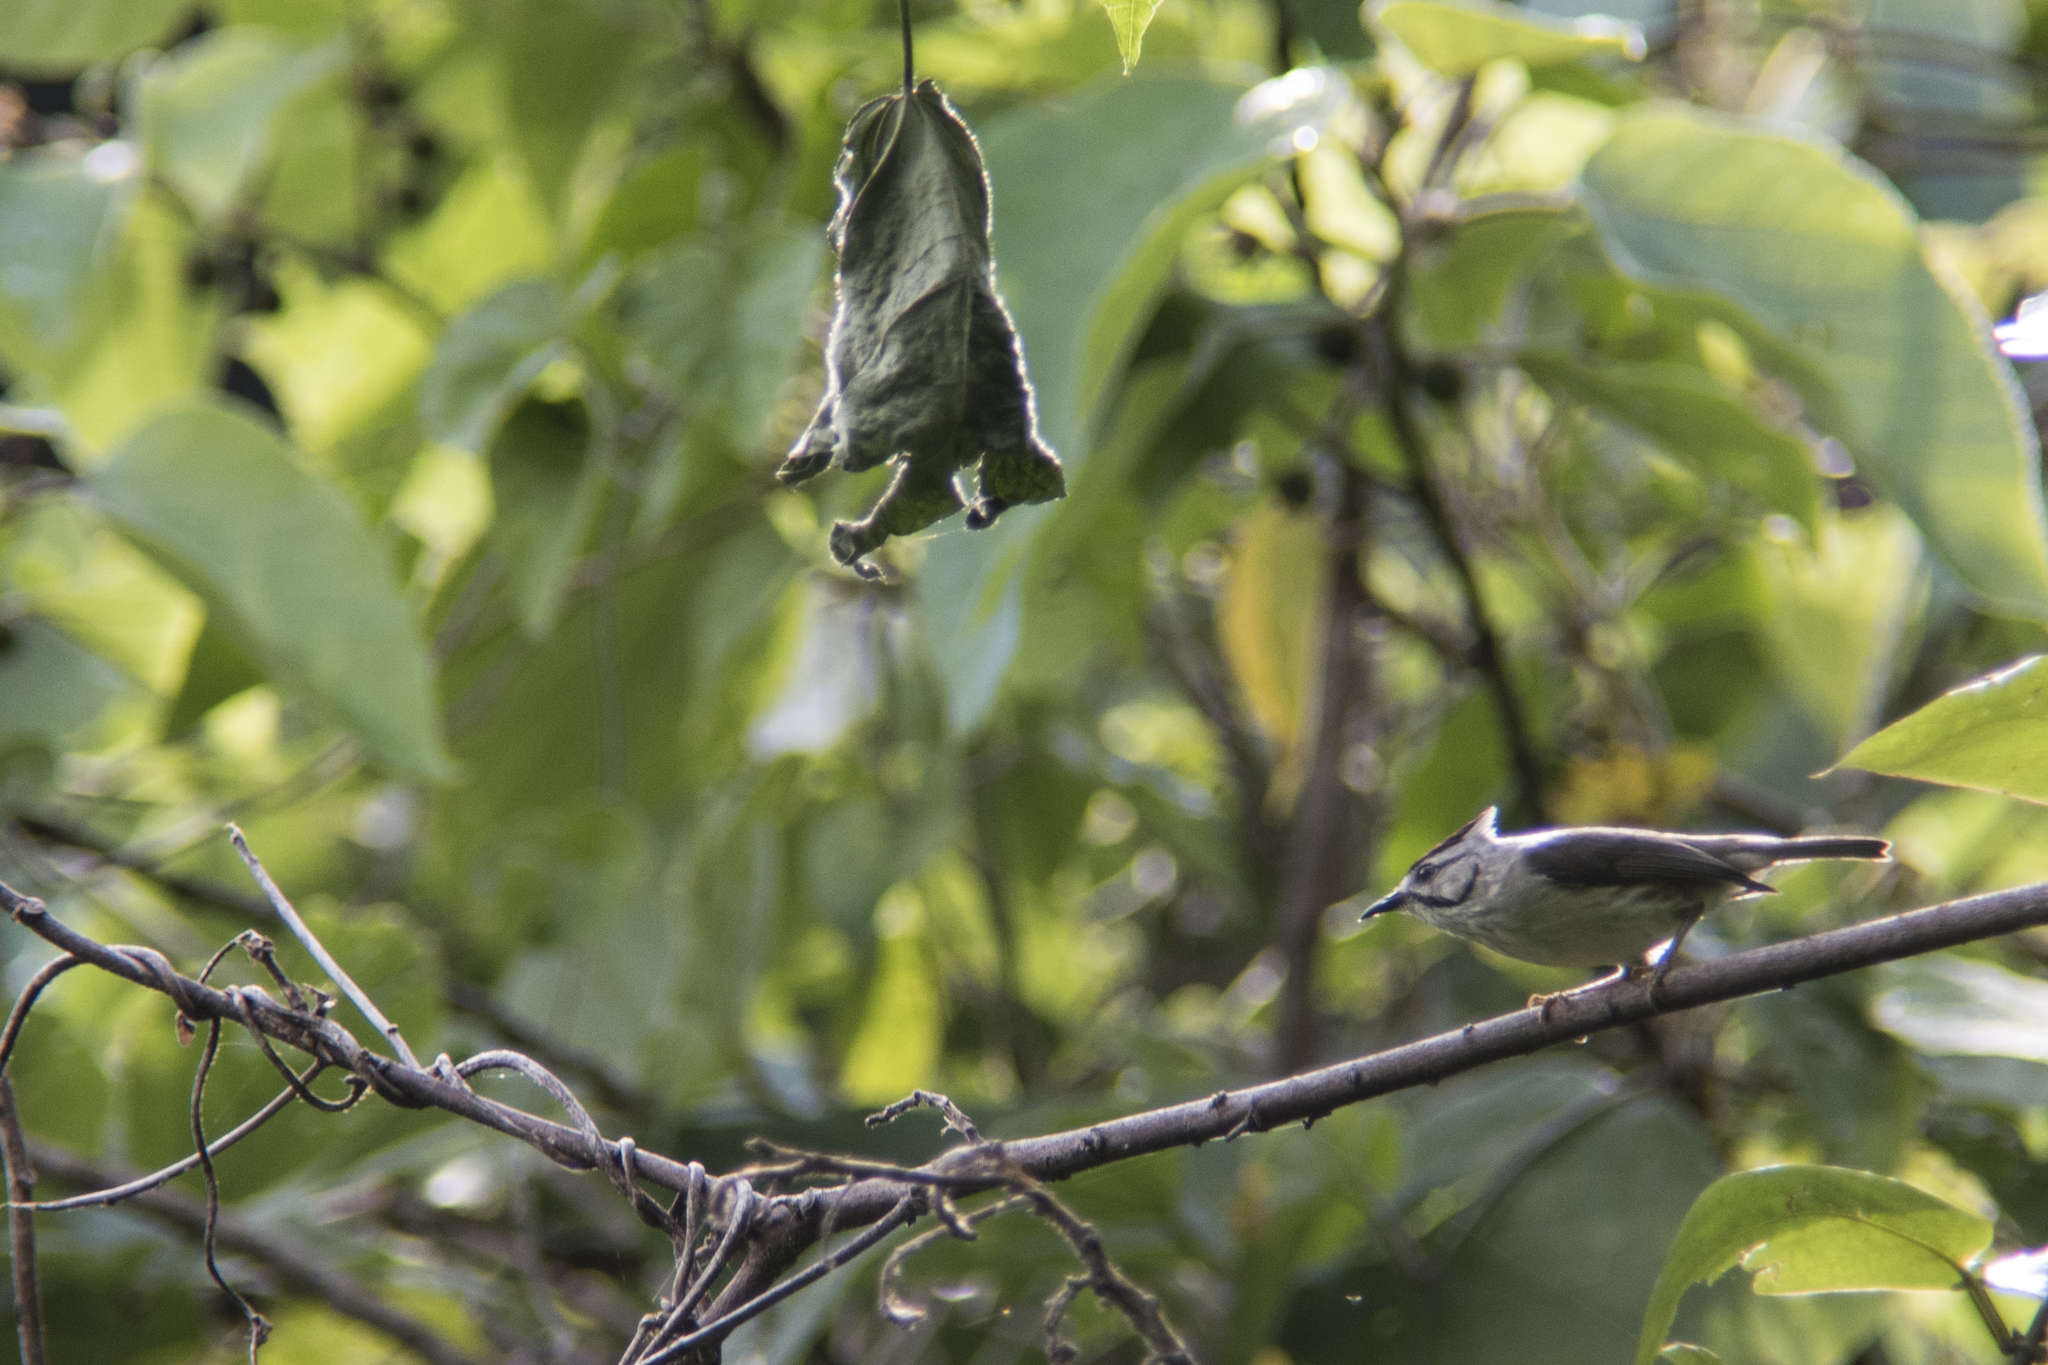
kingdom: Animalia
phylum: Chordata
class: Aves
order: Passeriformes
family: Zosteropidae
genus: Yuhina
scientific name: Yuhina brunneiceps
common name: Taiwan yuhina
